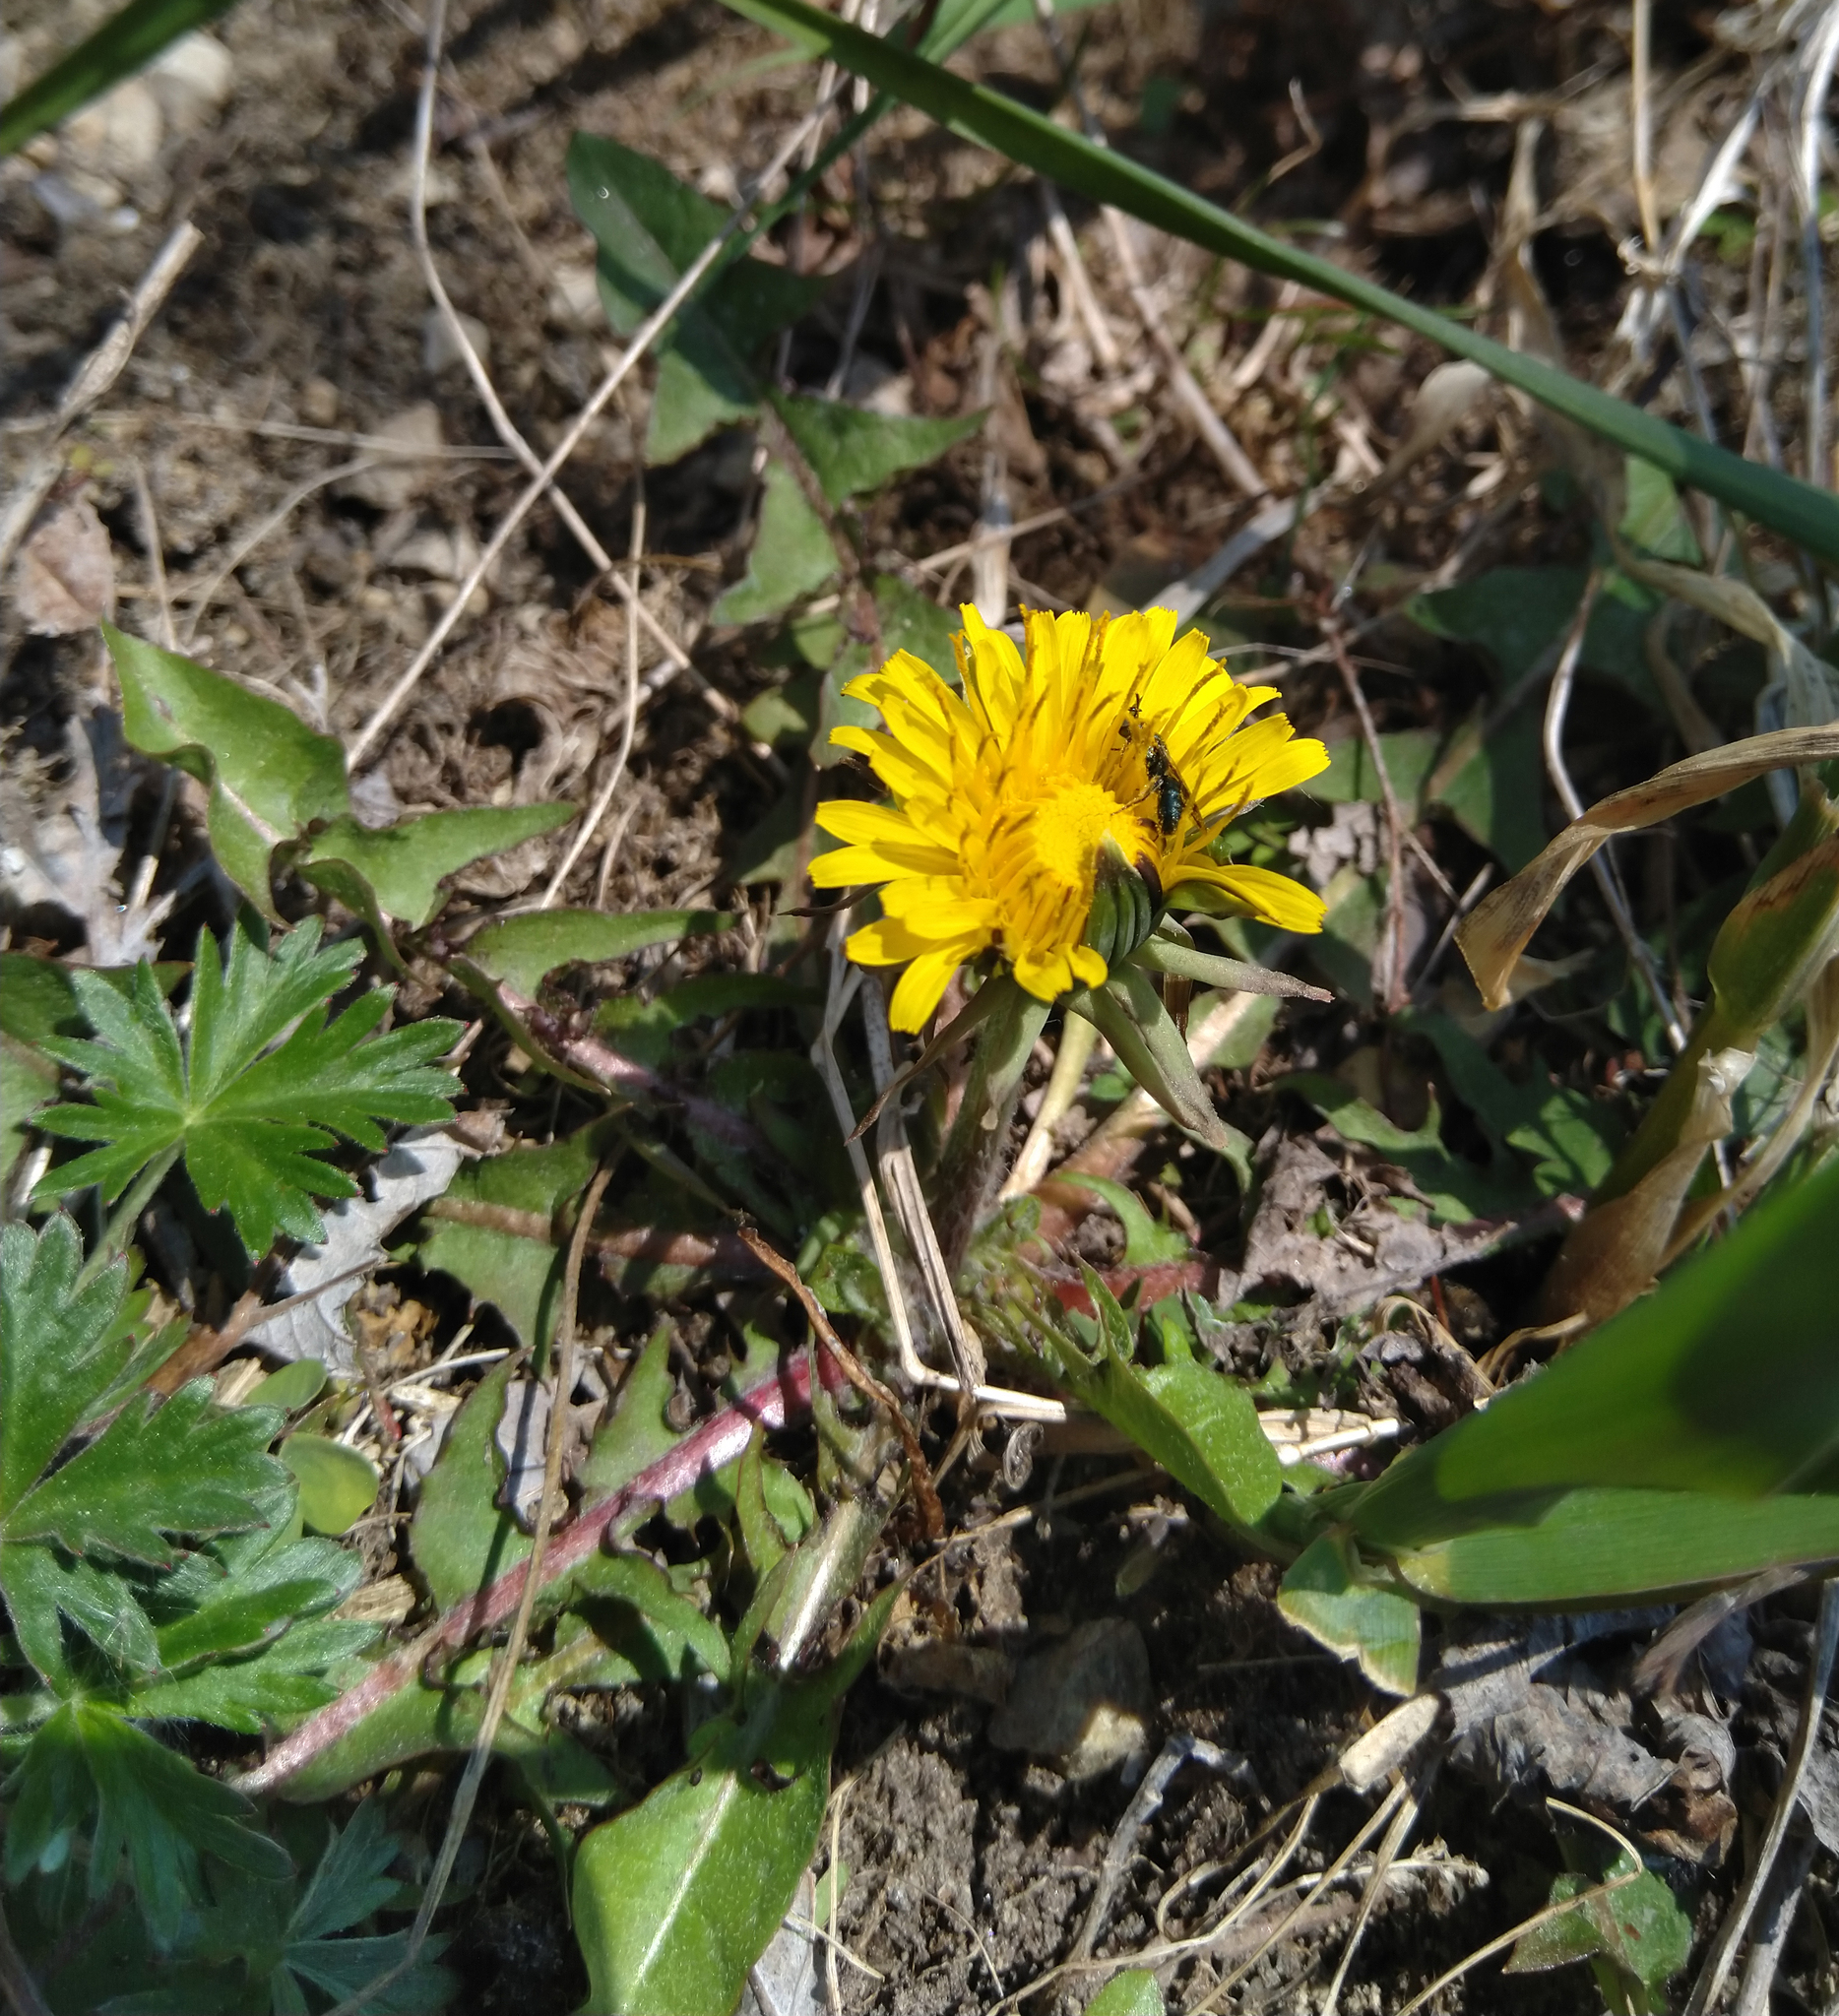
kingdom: Plantae
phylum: Tracheophyta
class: Magnoliopsida
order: Asterales
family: Asteraceae
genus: Taraxacum
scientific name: Taraxacum officinale
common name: Common dandelion
